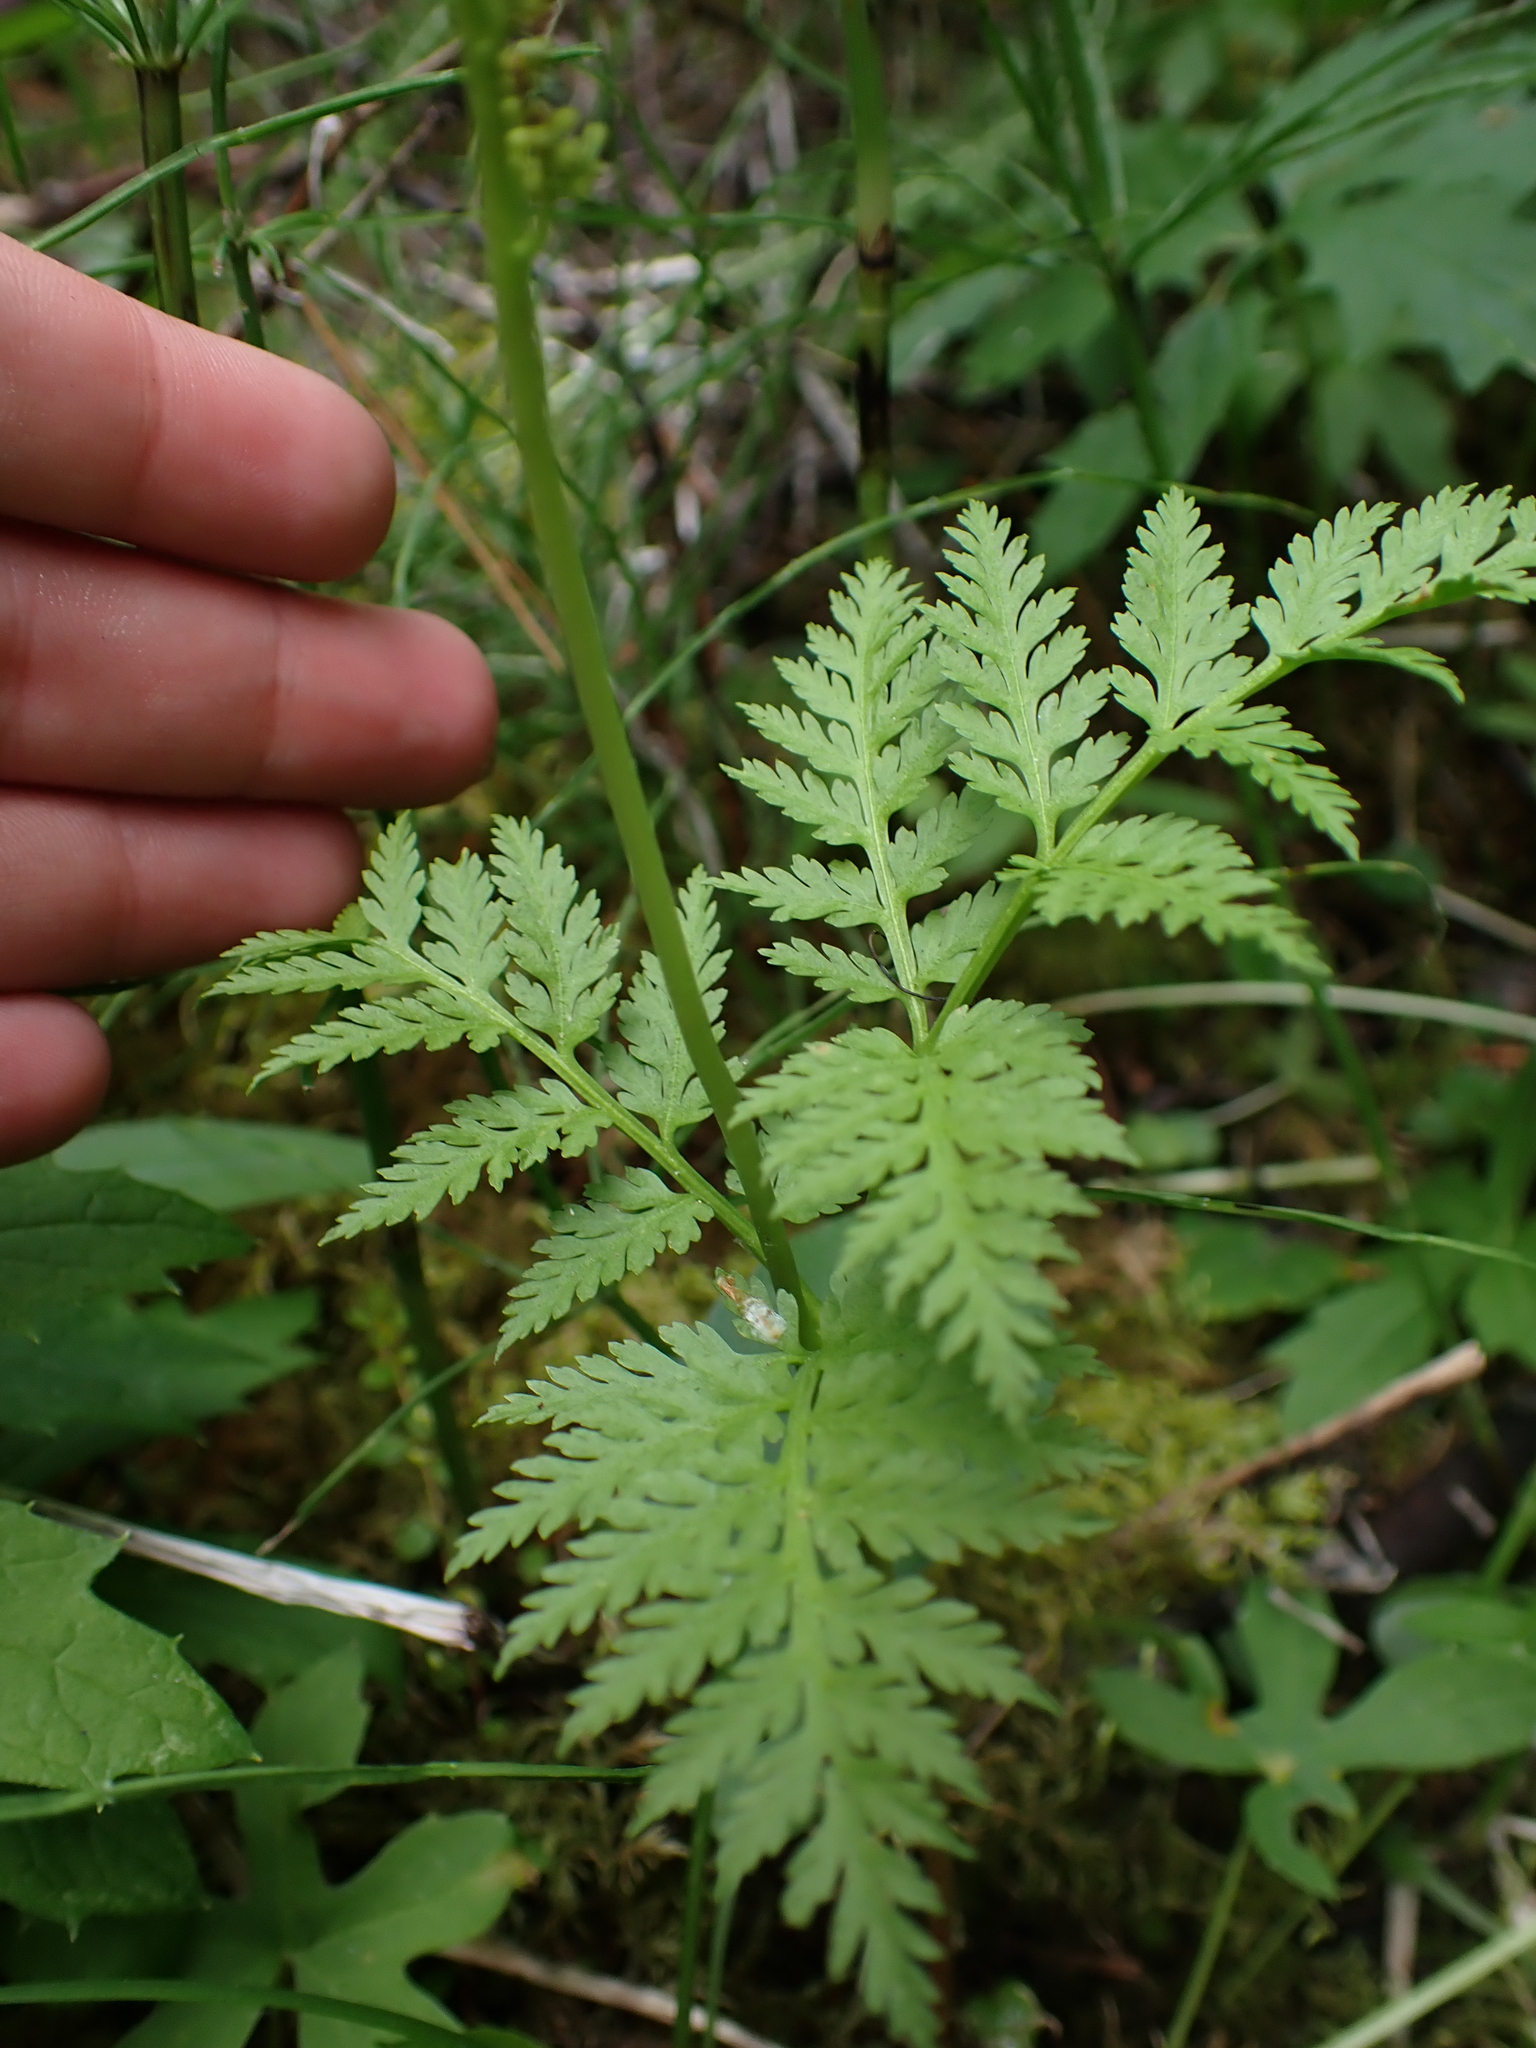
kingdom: Plantae
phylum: Tracheophyta
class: Polypodiopsida
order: Ophioglossales
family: Ophioglossaceae
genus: Botrypus
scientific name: Botrypus virginianus
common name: Common grapefern
